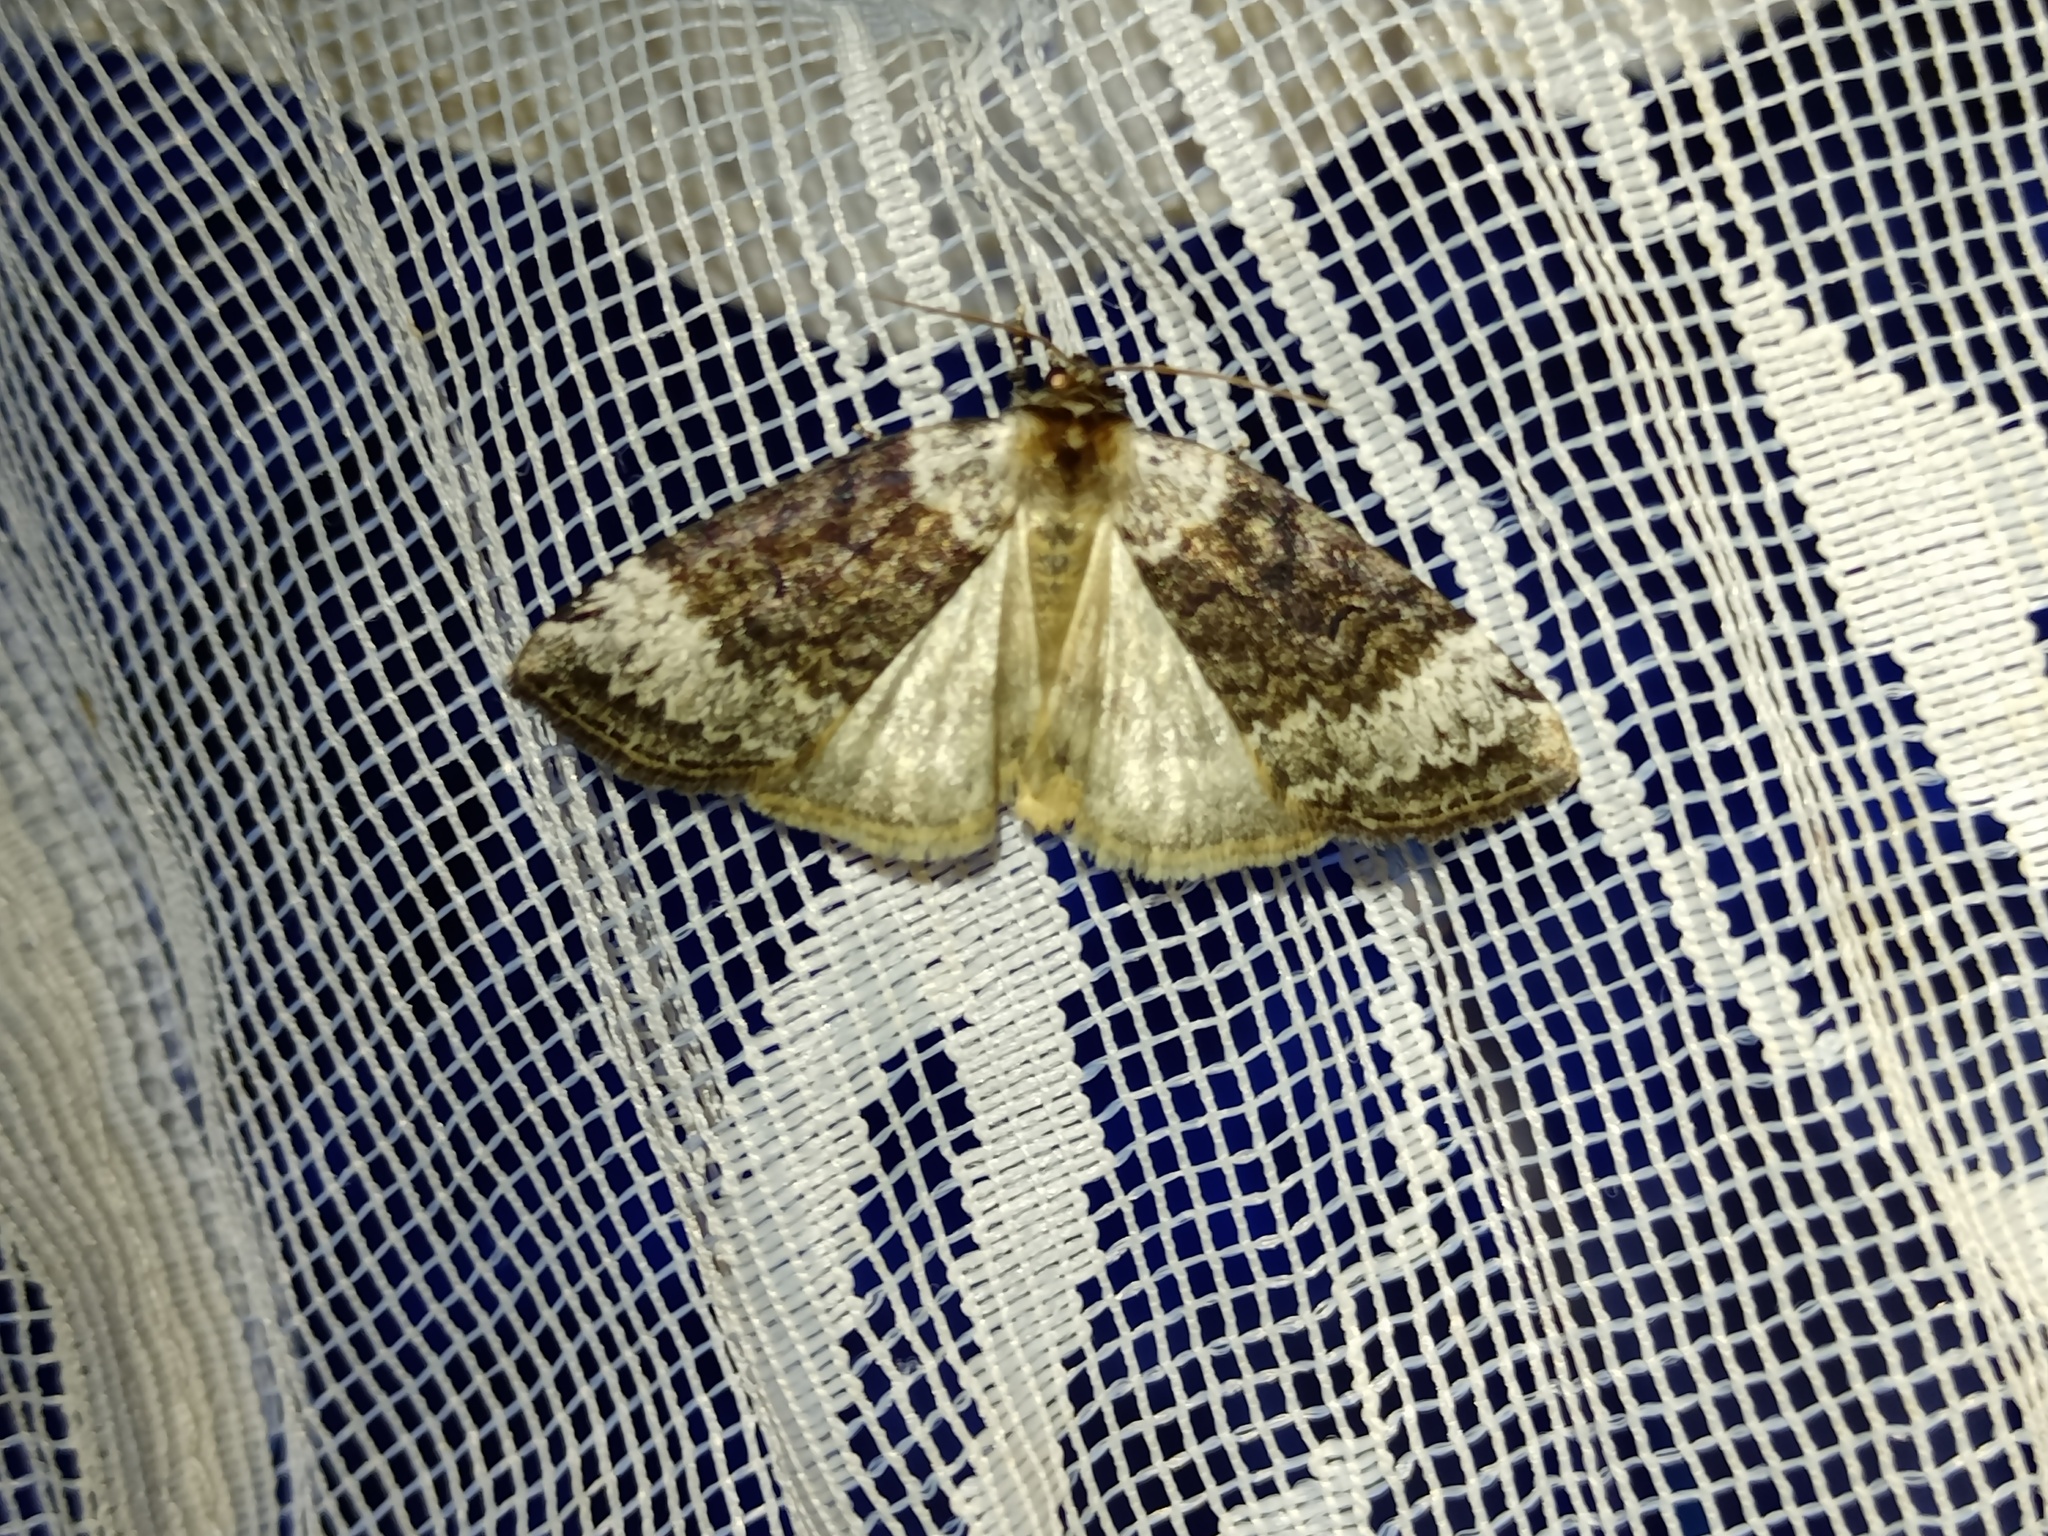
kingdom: Animalia
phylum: Arthropoda
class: Insecta
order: Lepidoptera
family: Drepanidae
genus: Tetheella
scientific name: Tetheella fluctuosa
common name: Satin lutestring
